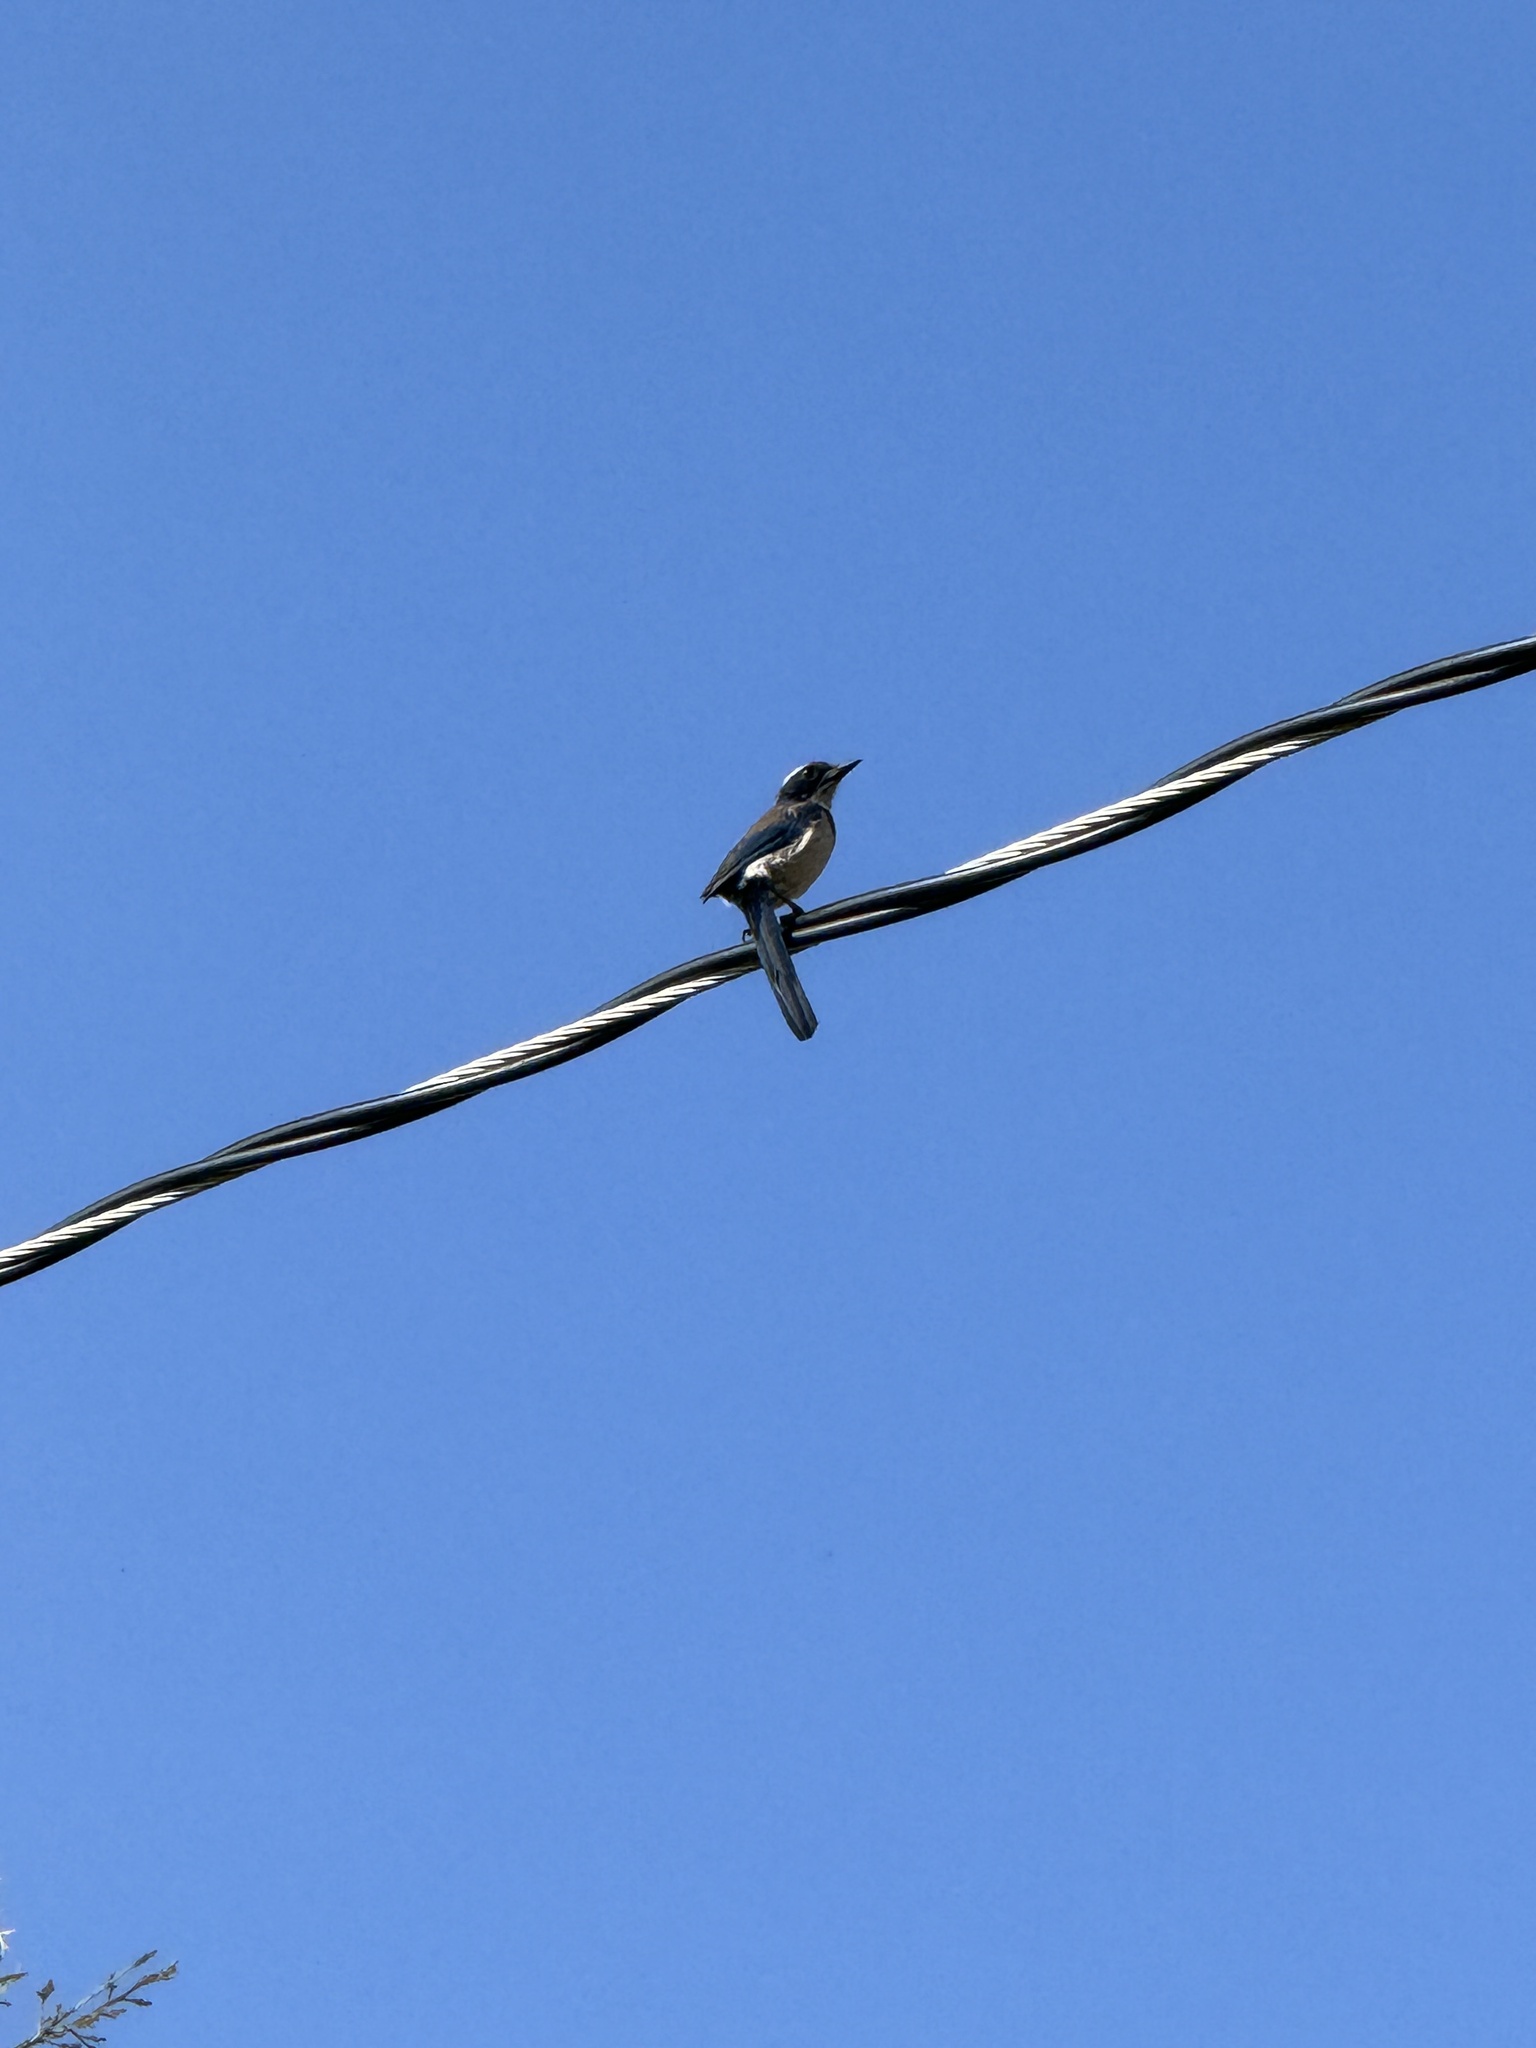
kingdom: Animalia
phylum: Chordata
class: Aves
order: Passeriformes
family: Corvidae
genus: Aphelocoma
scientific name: Aphelocoma californica
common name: California scrub-jay
